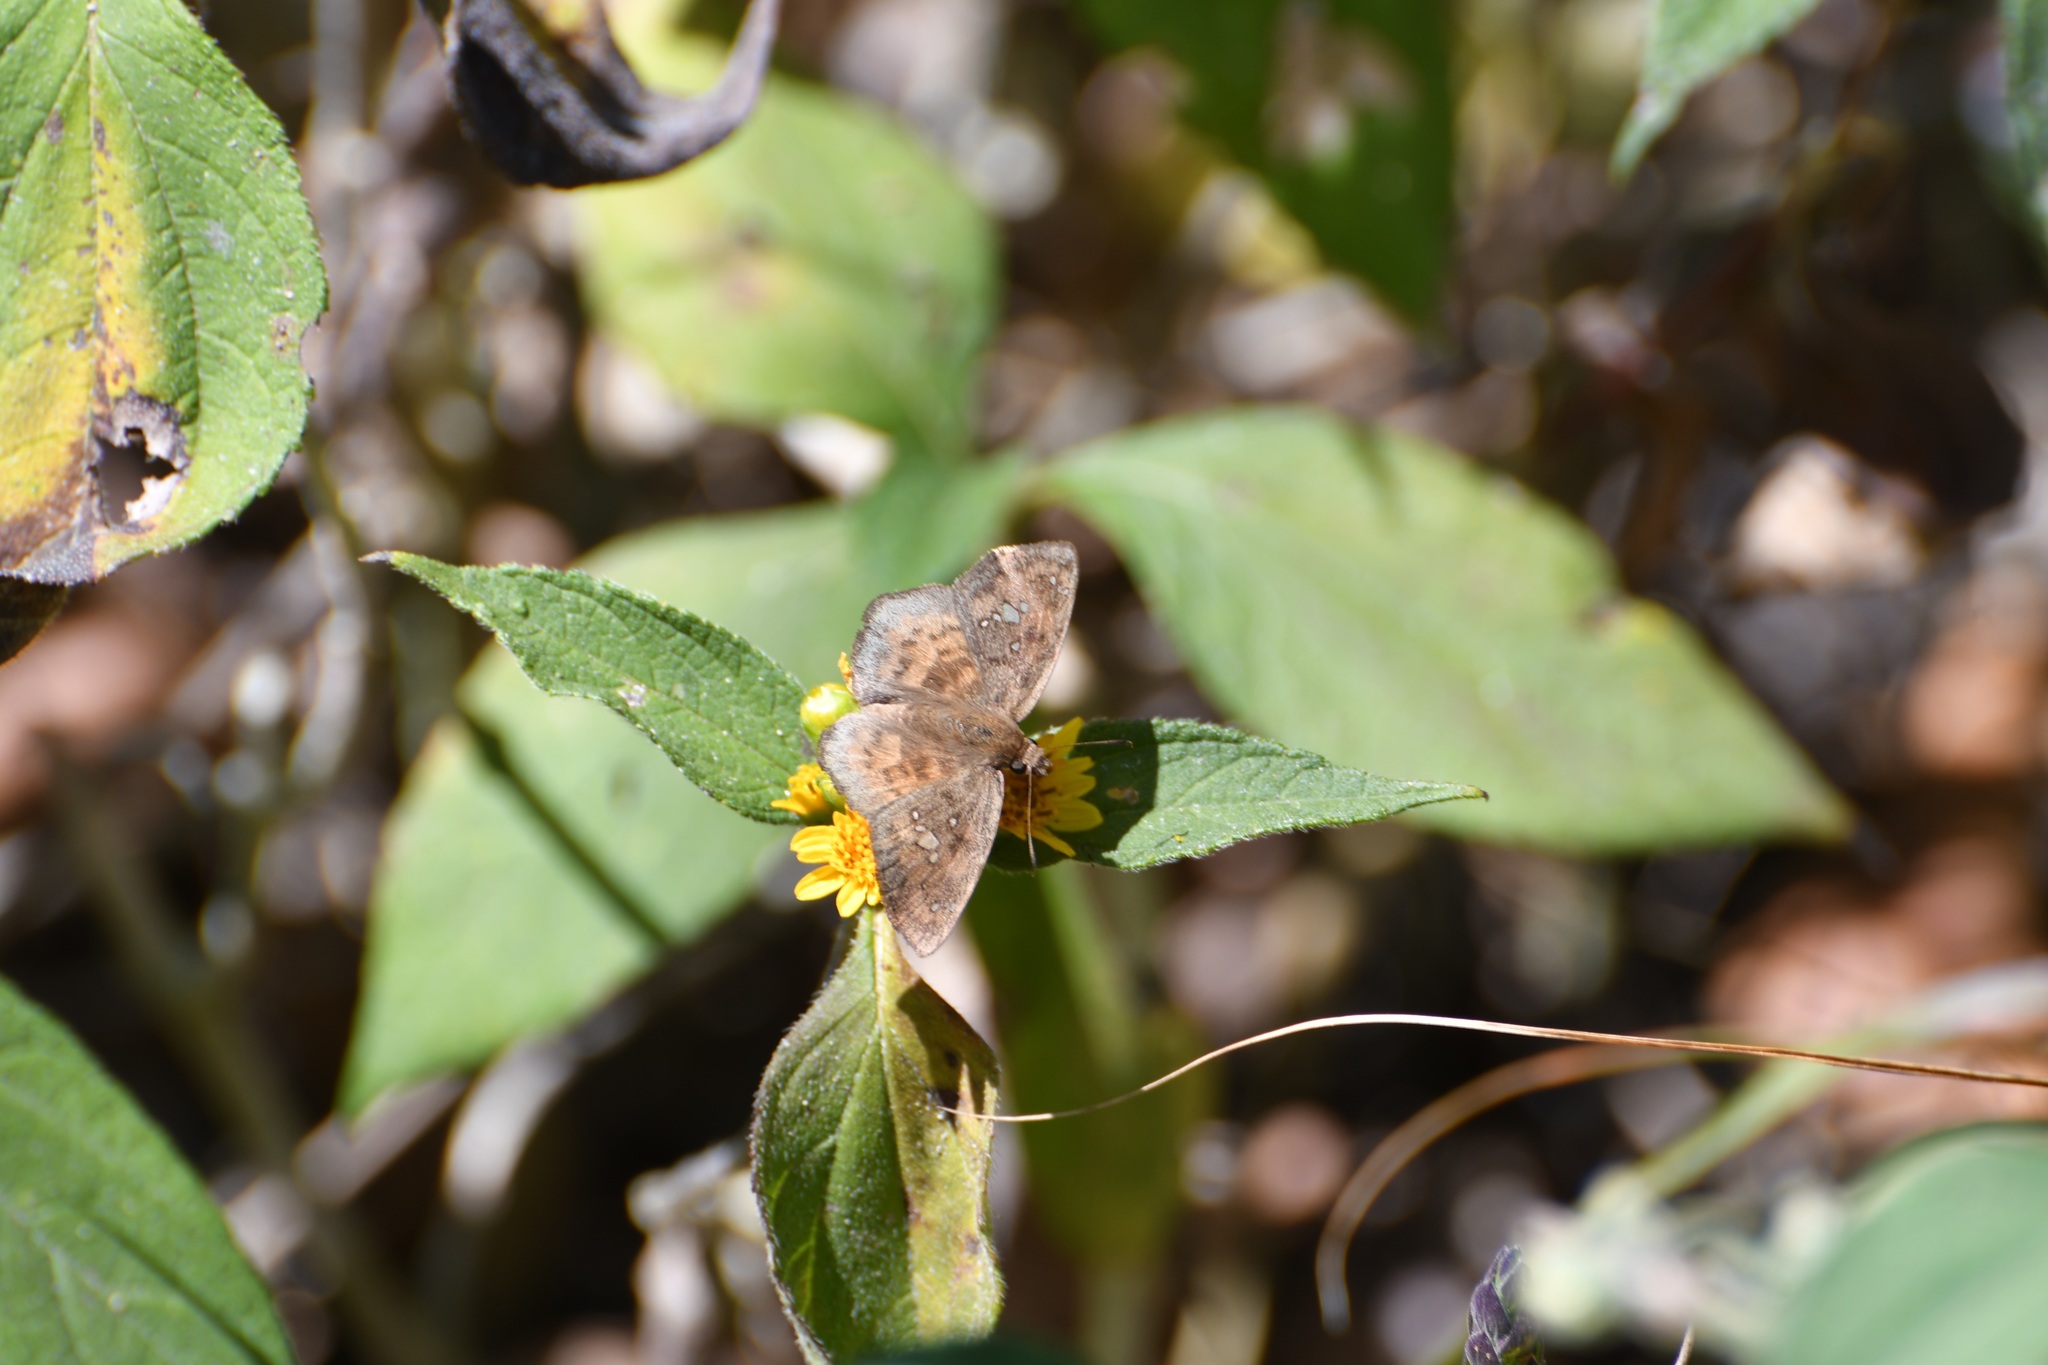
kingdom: Animalia
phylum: Arthropoda
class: Insecta
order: Lepidoptera
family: Hesperiidae
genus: Polyctor
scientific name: Polyctor enops
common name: Enops tufted-skipper
